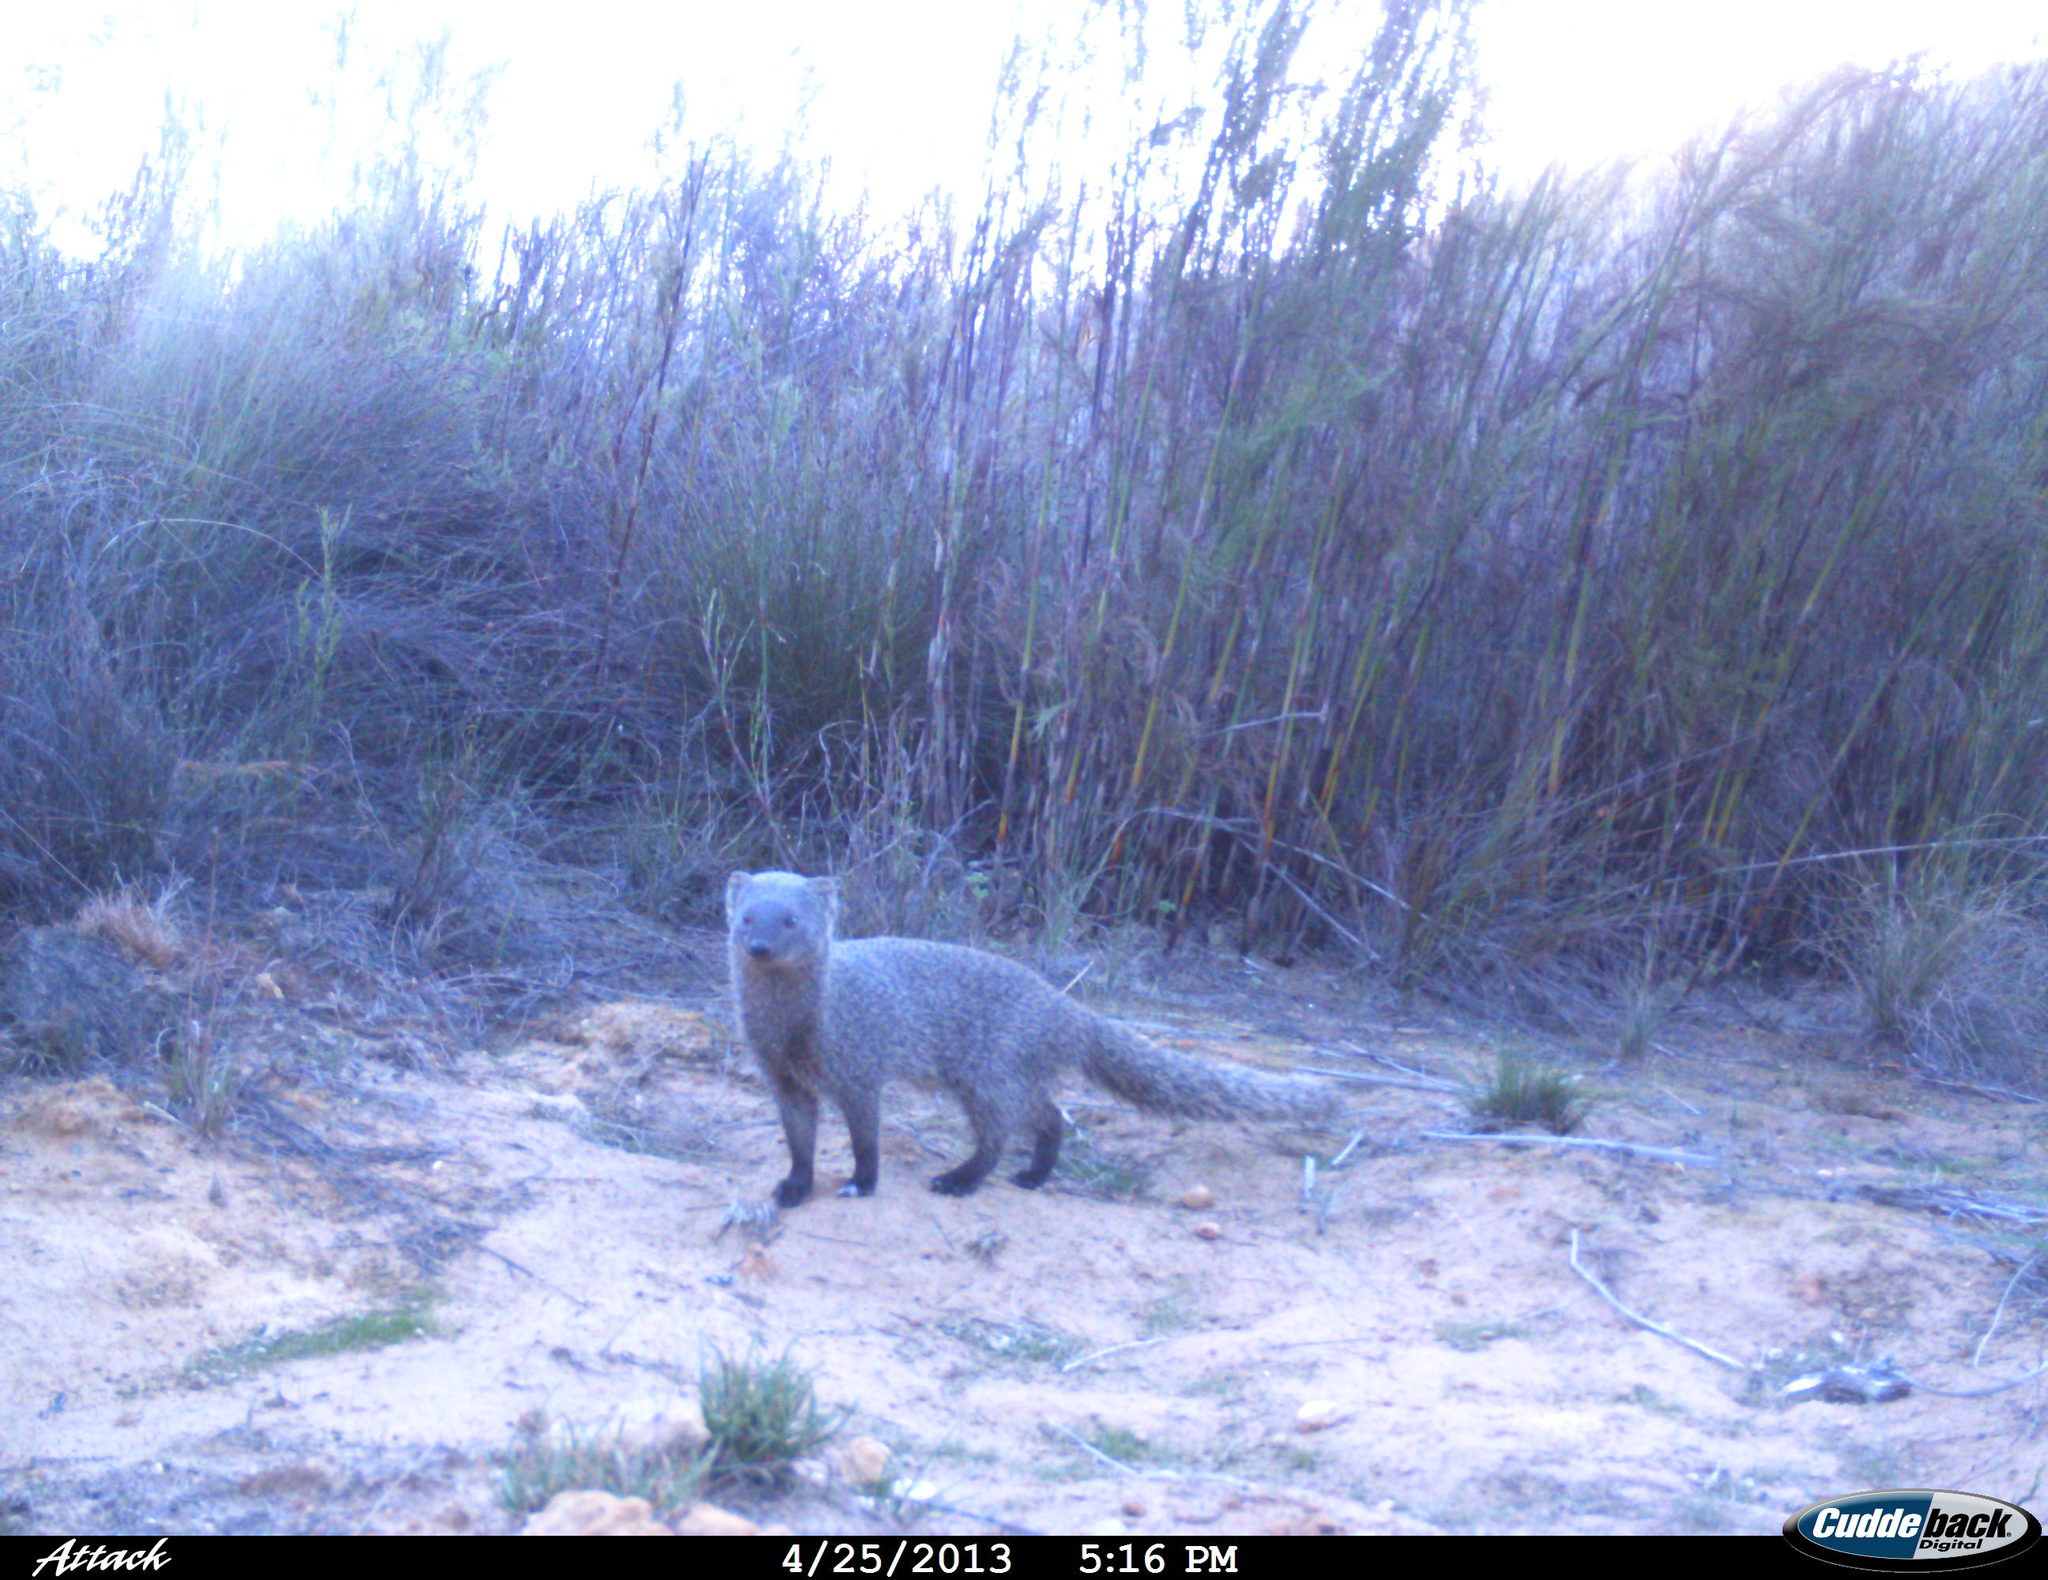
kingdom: Animalia
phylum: Chordata
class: Mammalia
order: Carnivora
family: Herpestidae
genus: Galerella
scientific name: Galerella pulverulenta
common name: Cape gray mongoose
